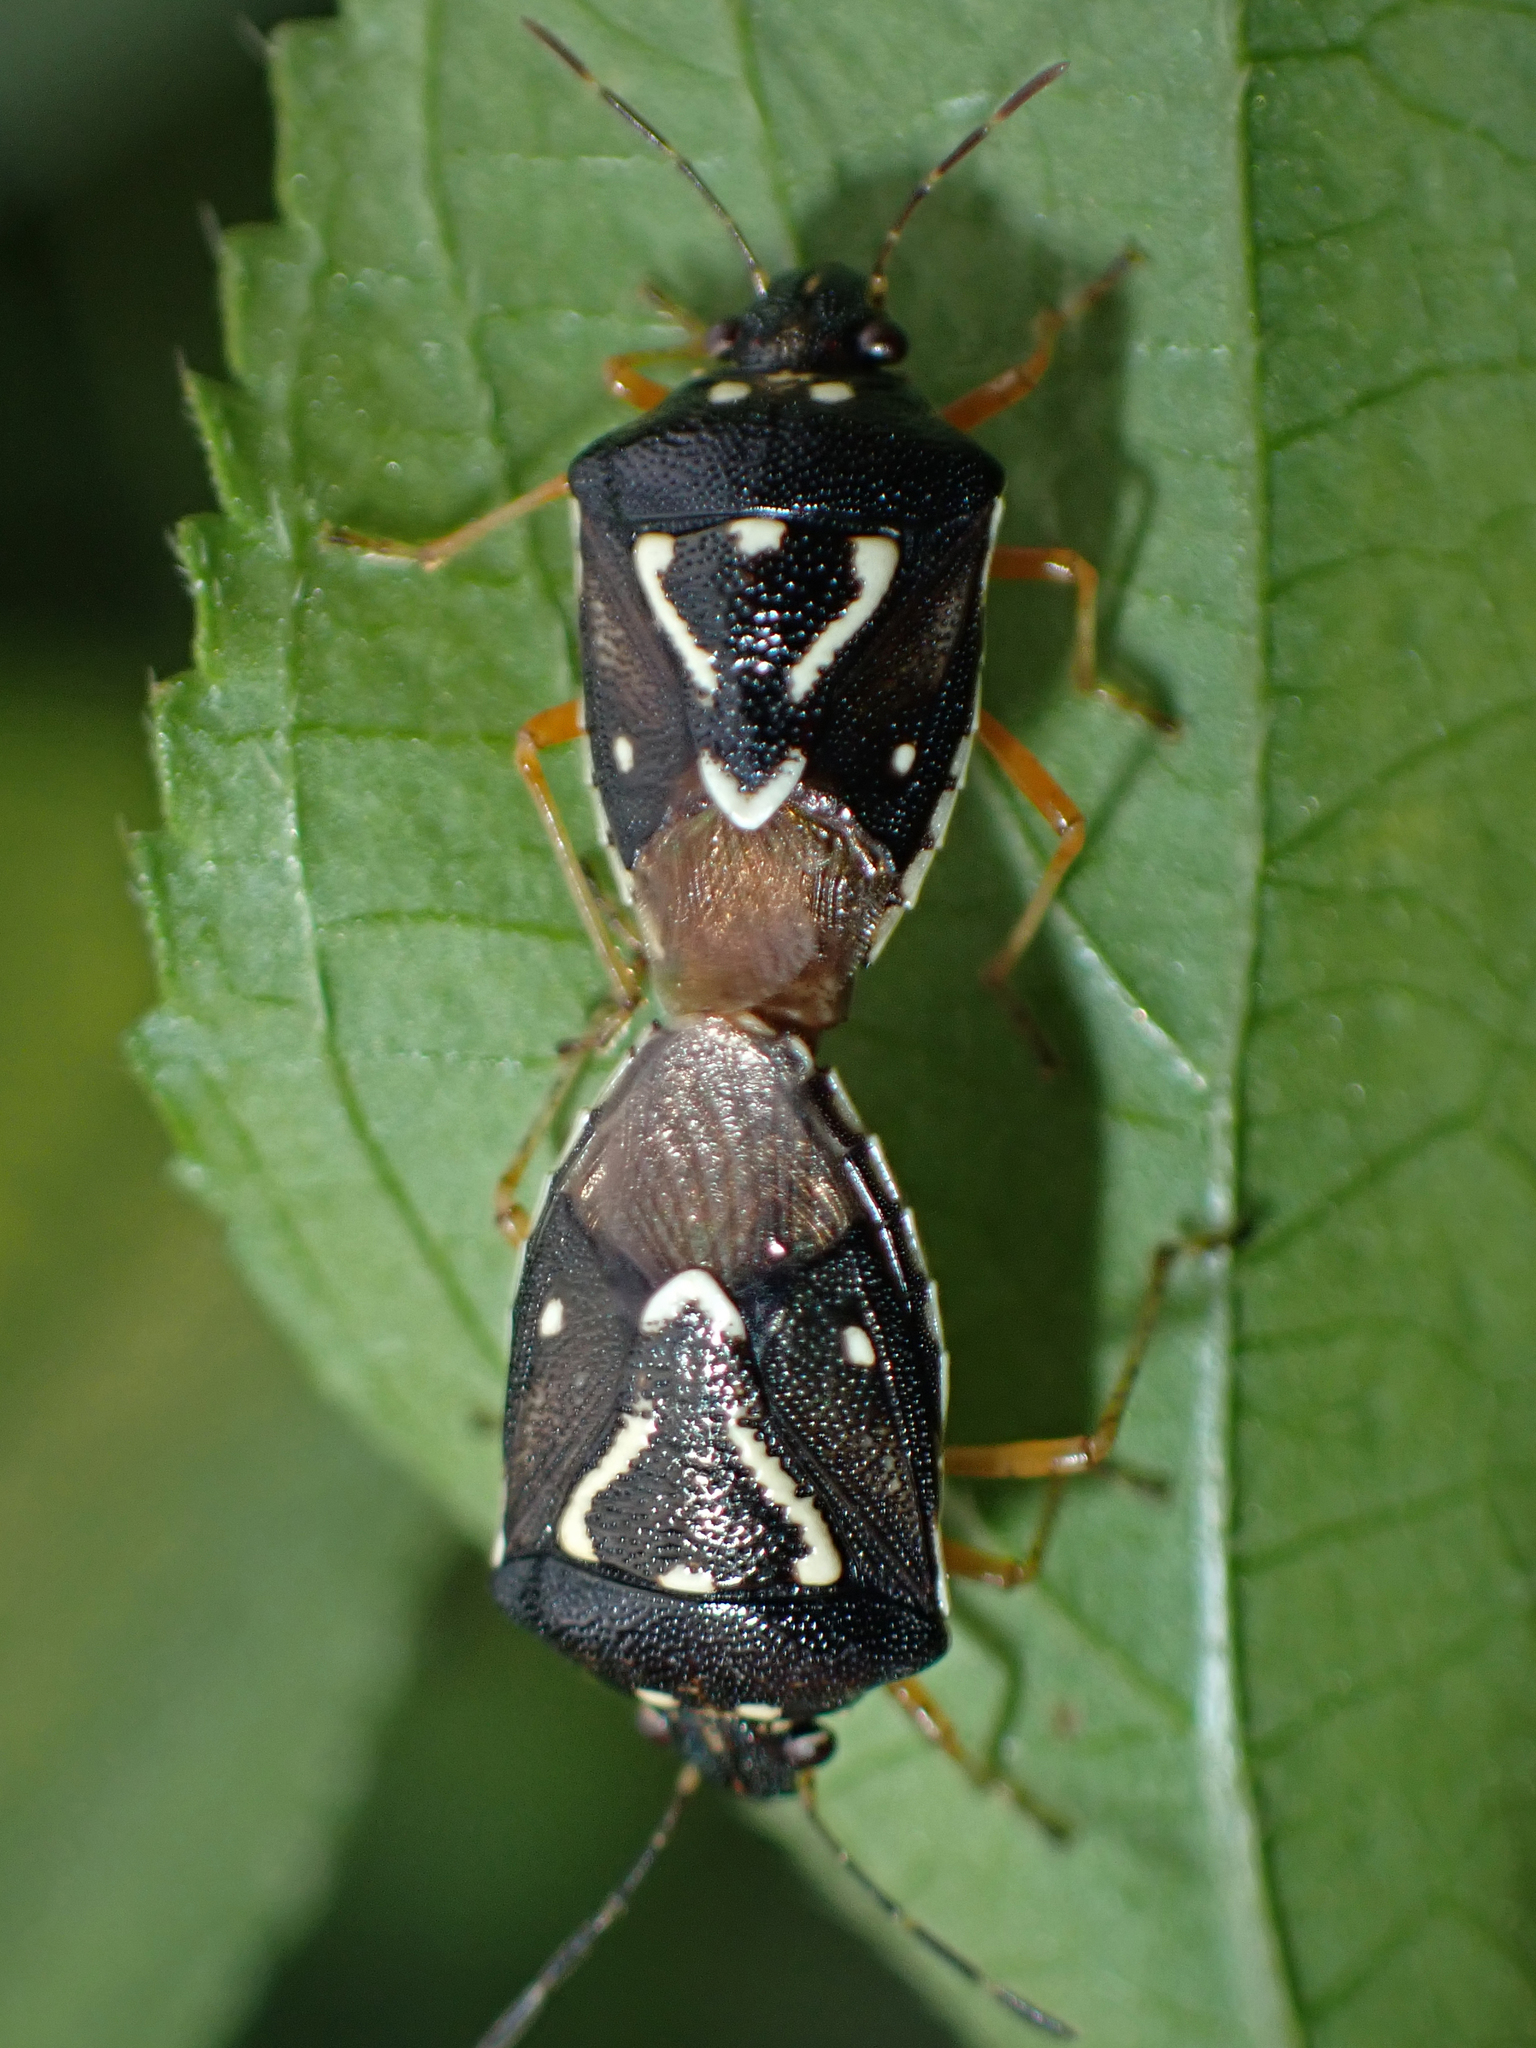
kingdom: Animalia
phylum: Arthropoda
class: Insecta
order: Hemiptera
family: Pentatomidae
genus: Mormidea
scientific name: Mormidea pama
